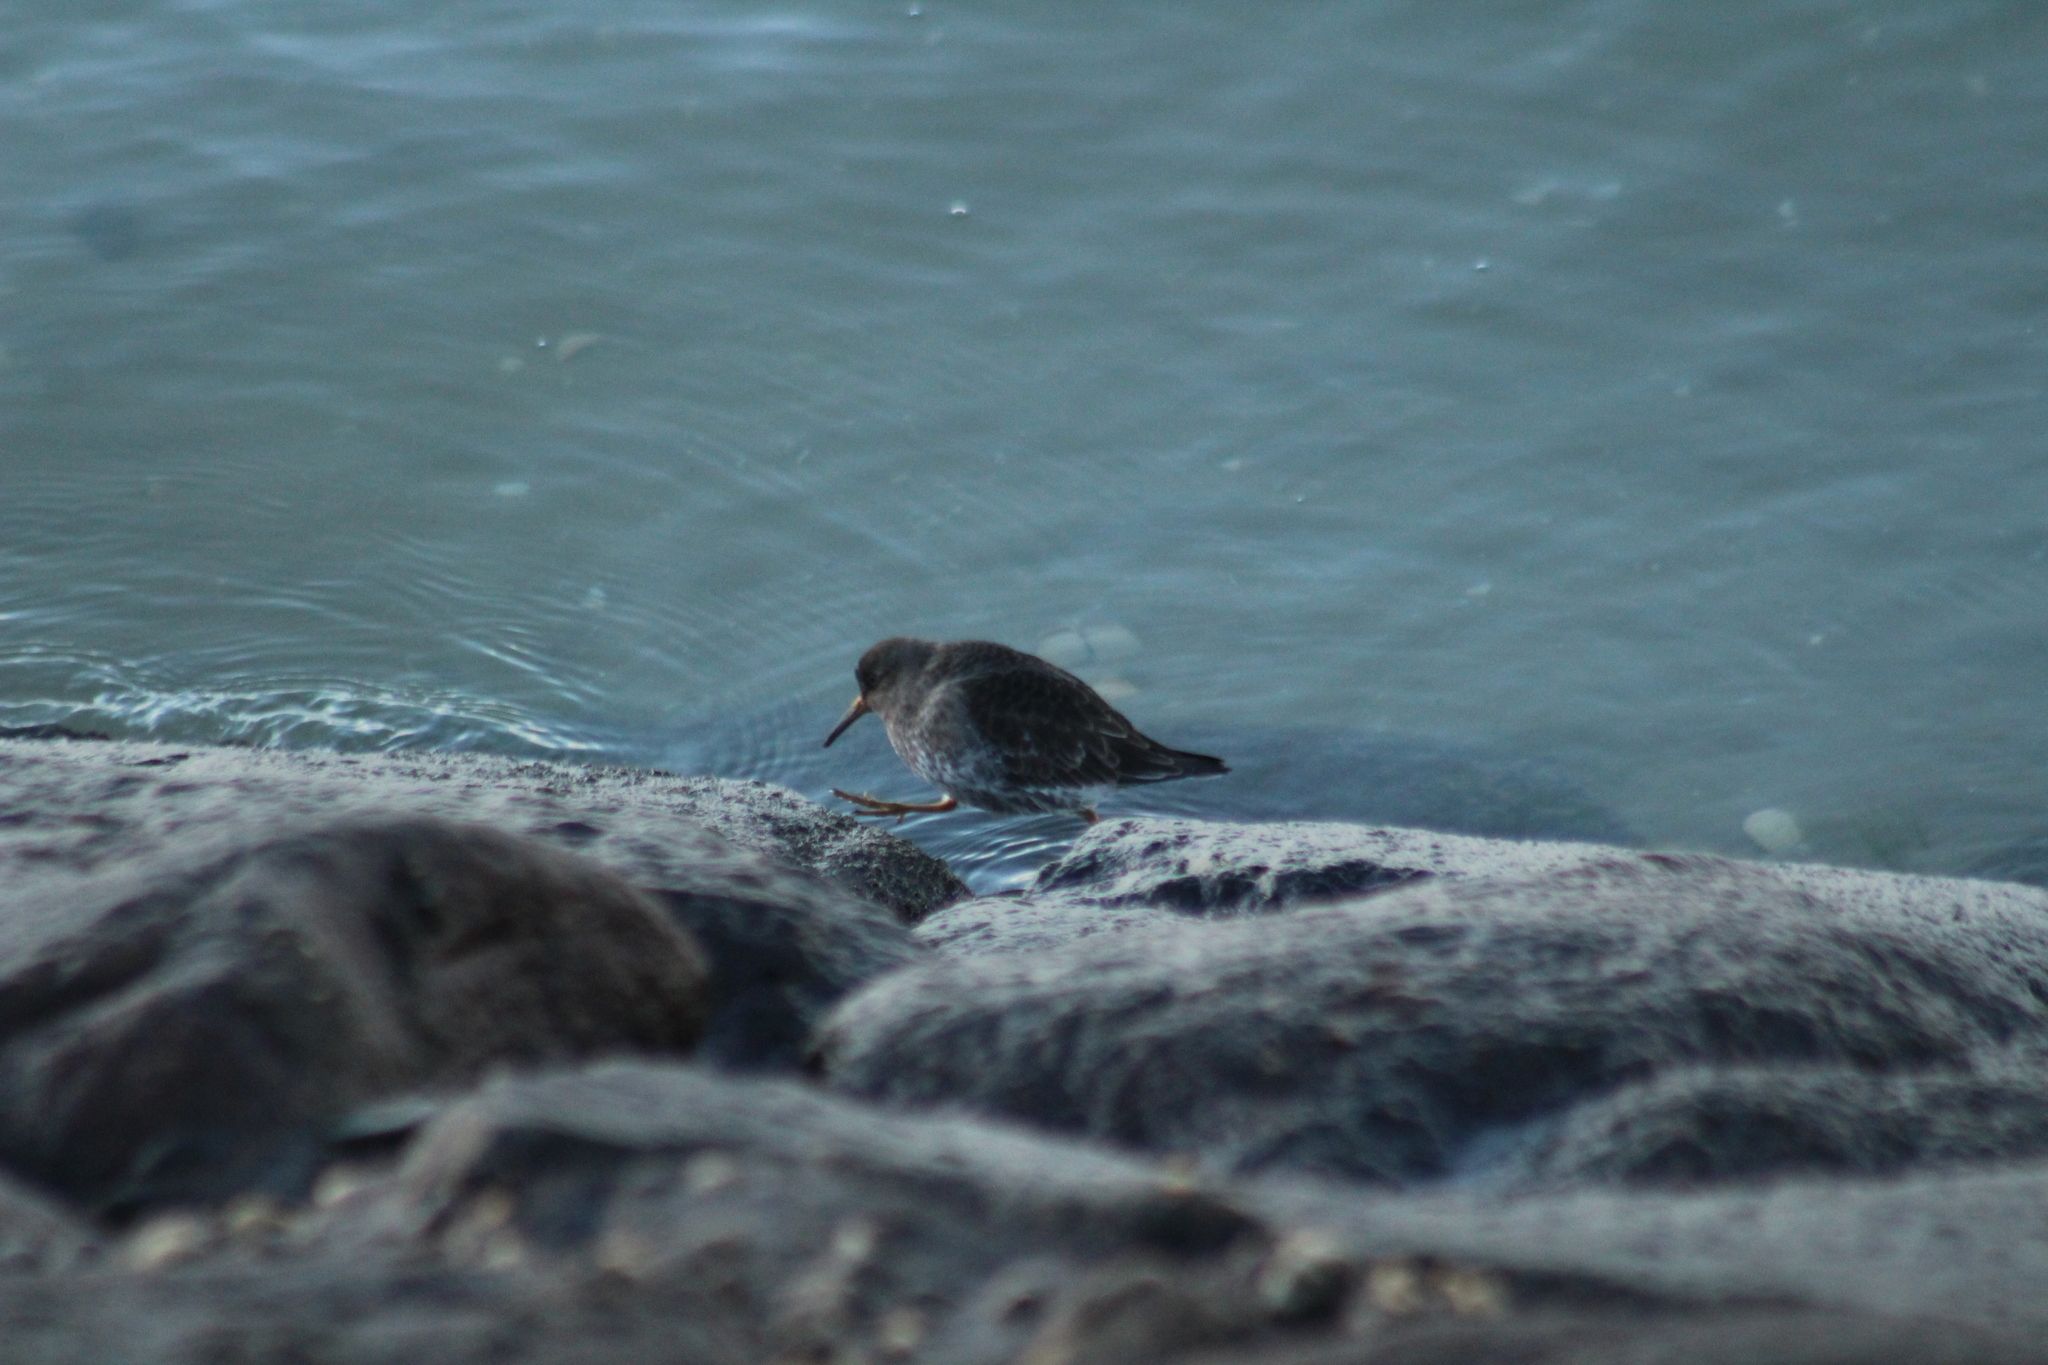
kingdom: Animalia
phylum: Chordata
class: Aves
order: Charadriiformes
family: Scolopacidae
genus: Calidris
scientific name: Calidris maritima
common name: Purple sandpiper
